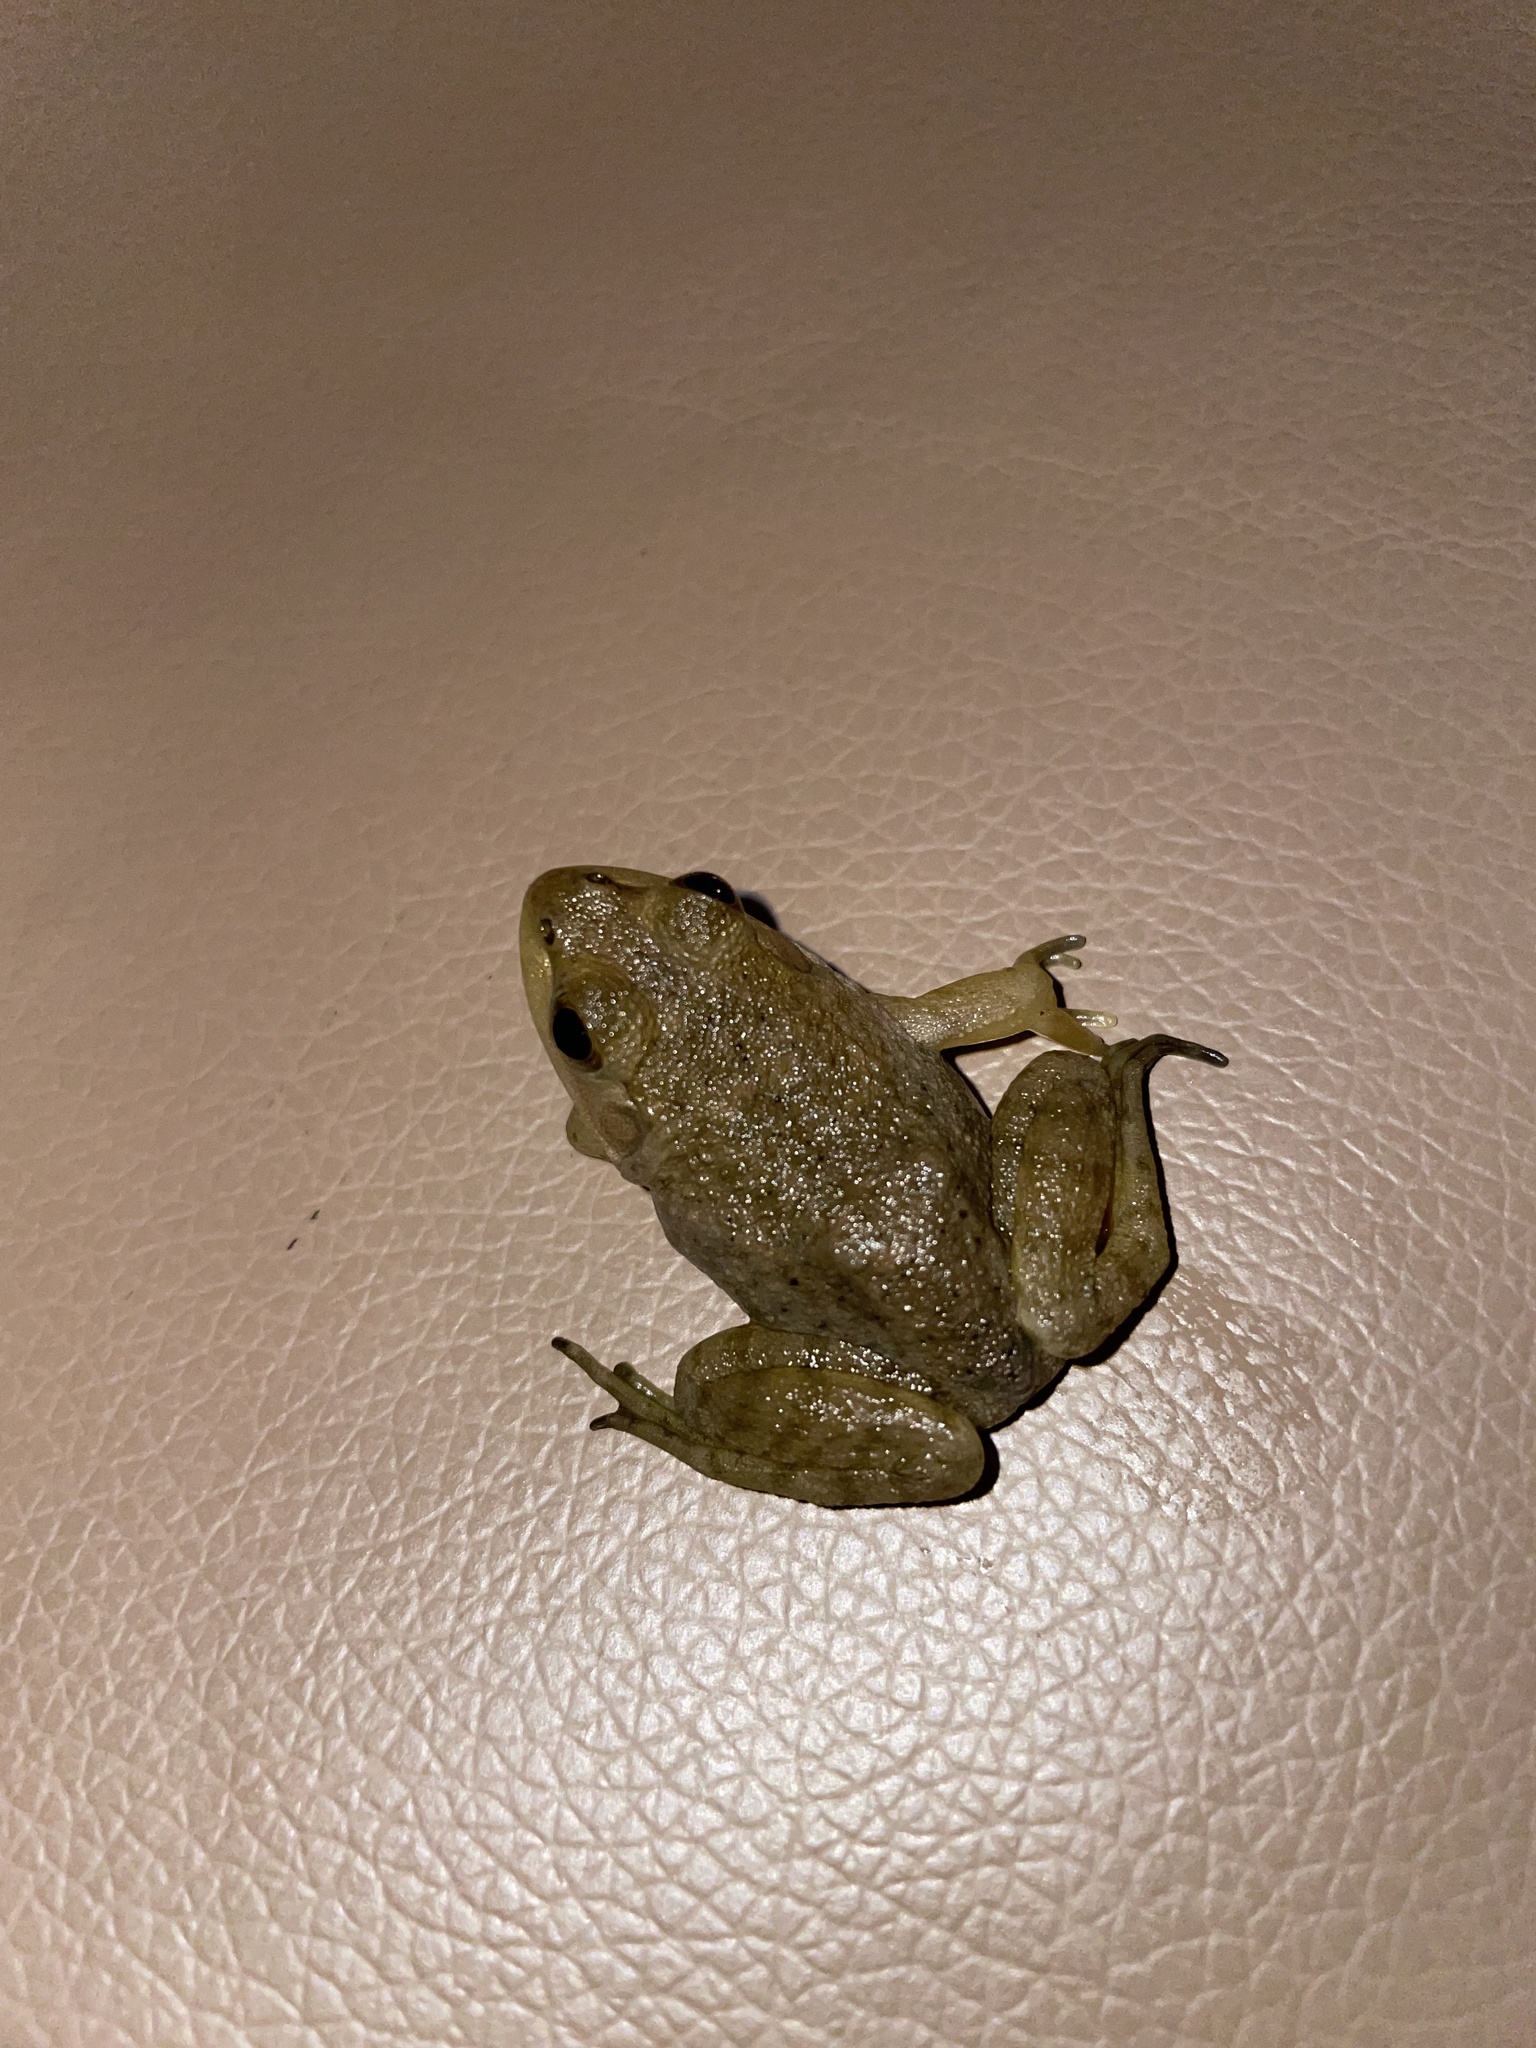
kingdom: Animalia
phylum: Chordata
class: Amphibia
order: Anura
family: Ranidae
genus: Lithobates
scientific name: Lithobates catesbeianus
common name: American bullfrog
